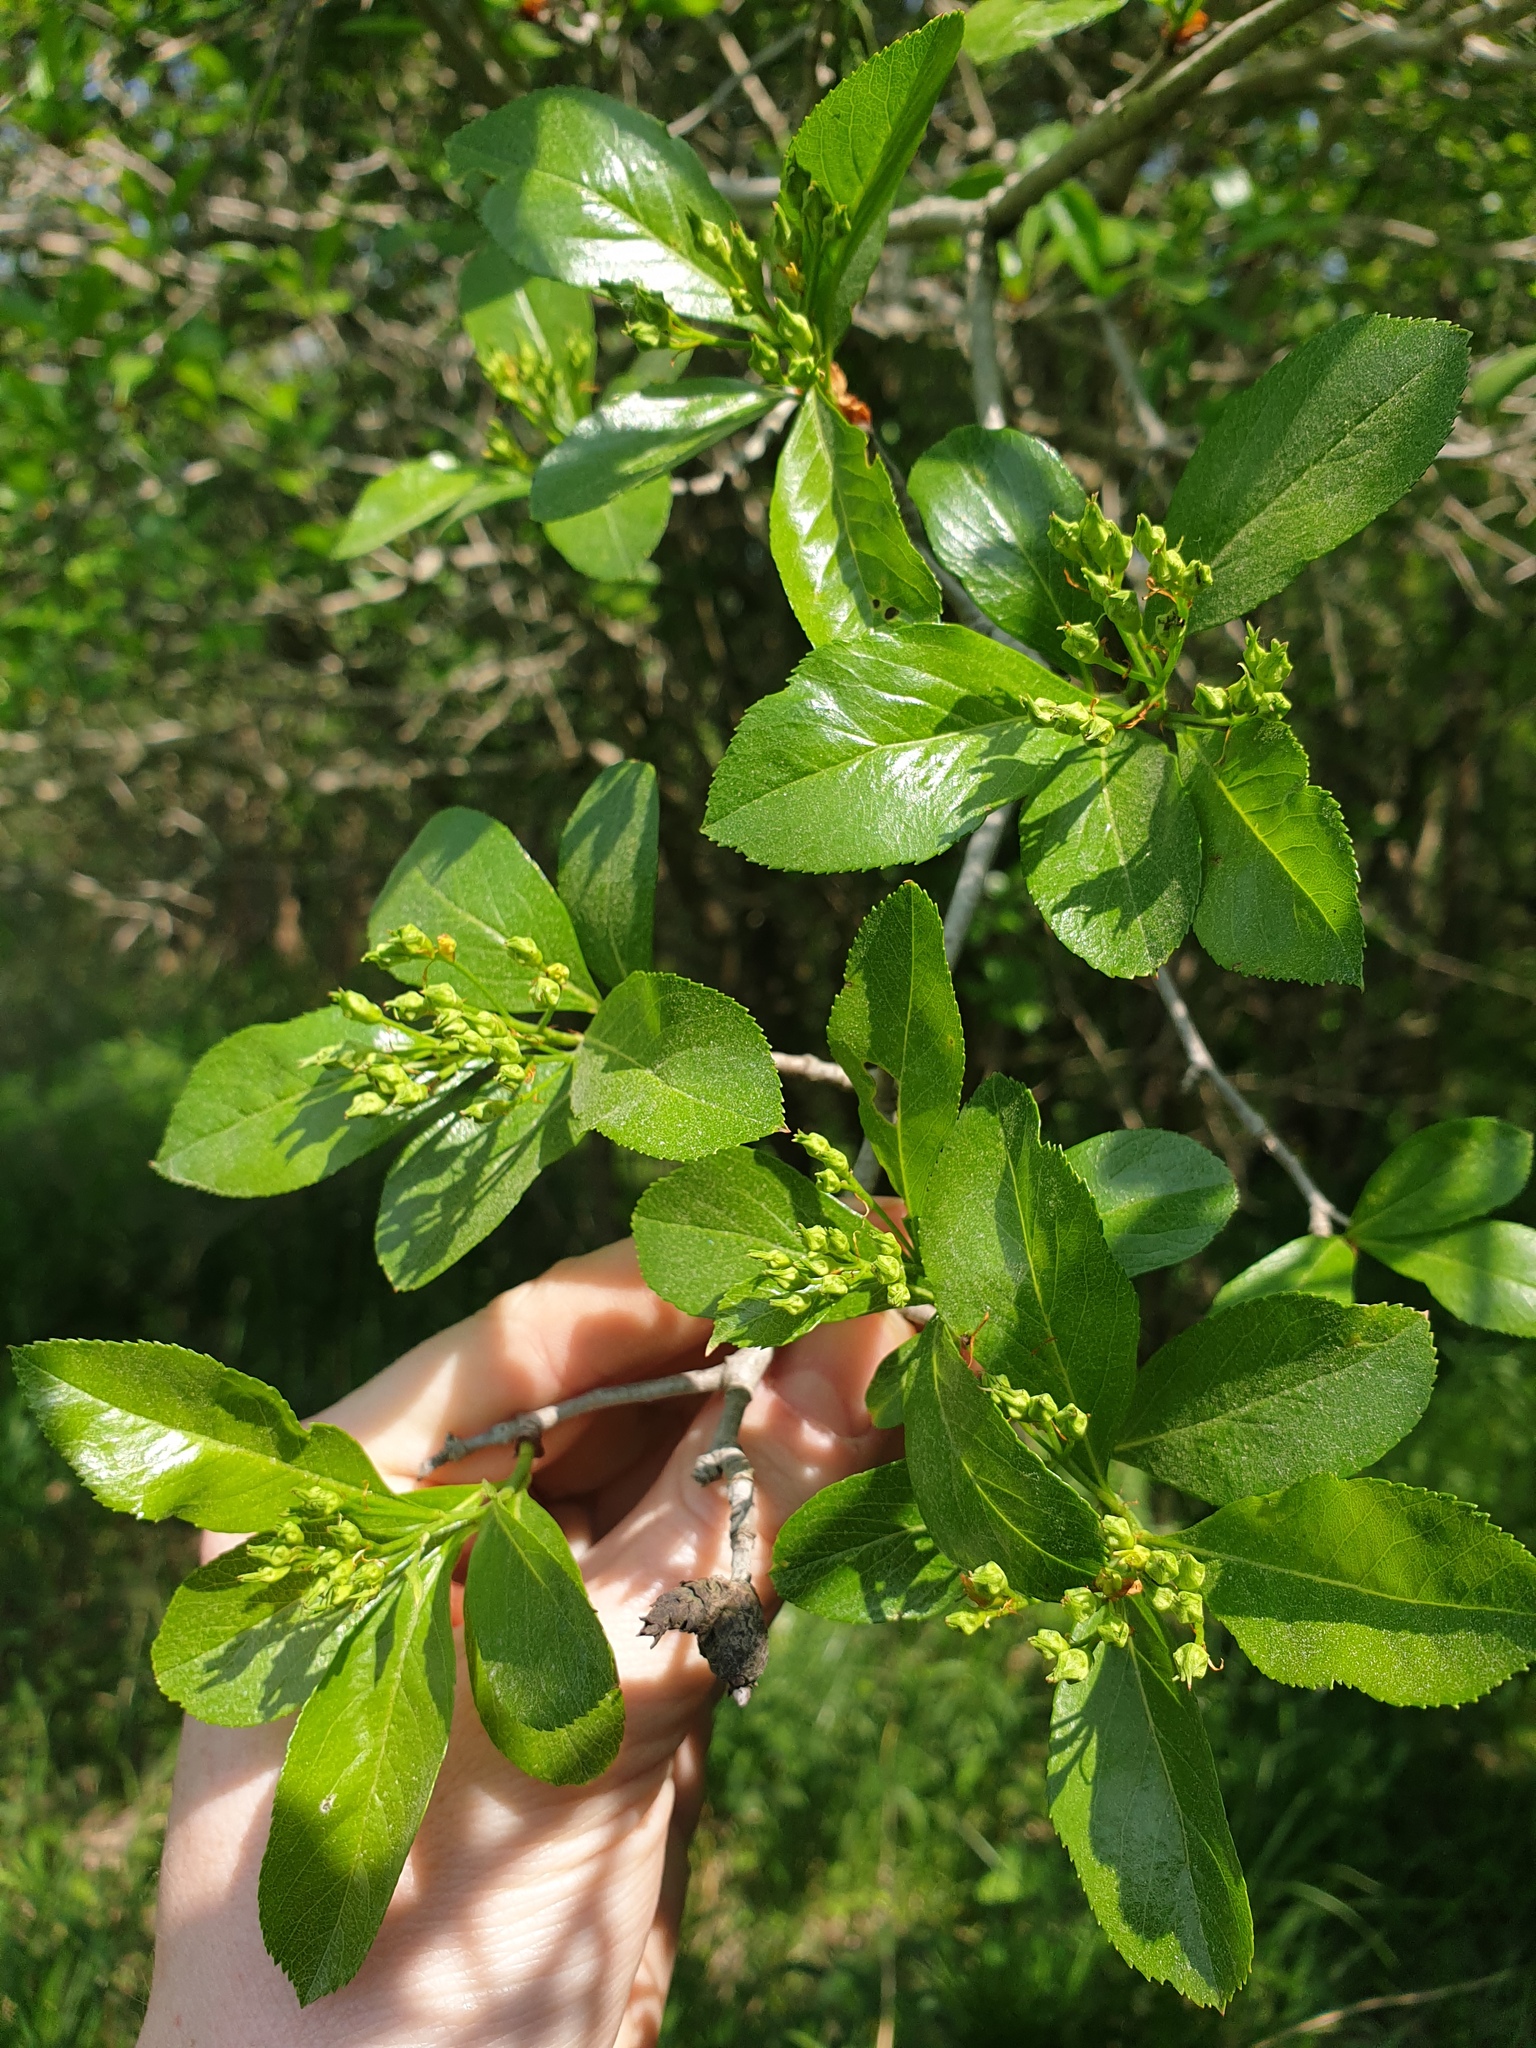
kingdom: Plantae
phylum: Tracheophyta
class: Magnoliopsida
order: Rosales
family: Rosaceae
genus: Crataegus
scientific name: Crataegus crus-galli
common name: Cockspurthorn
